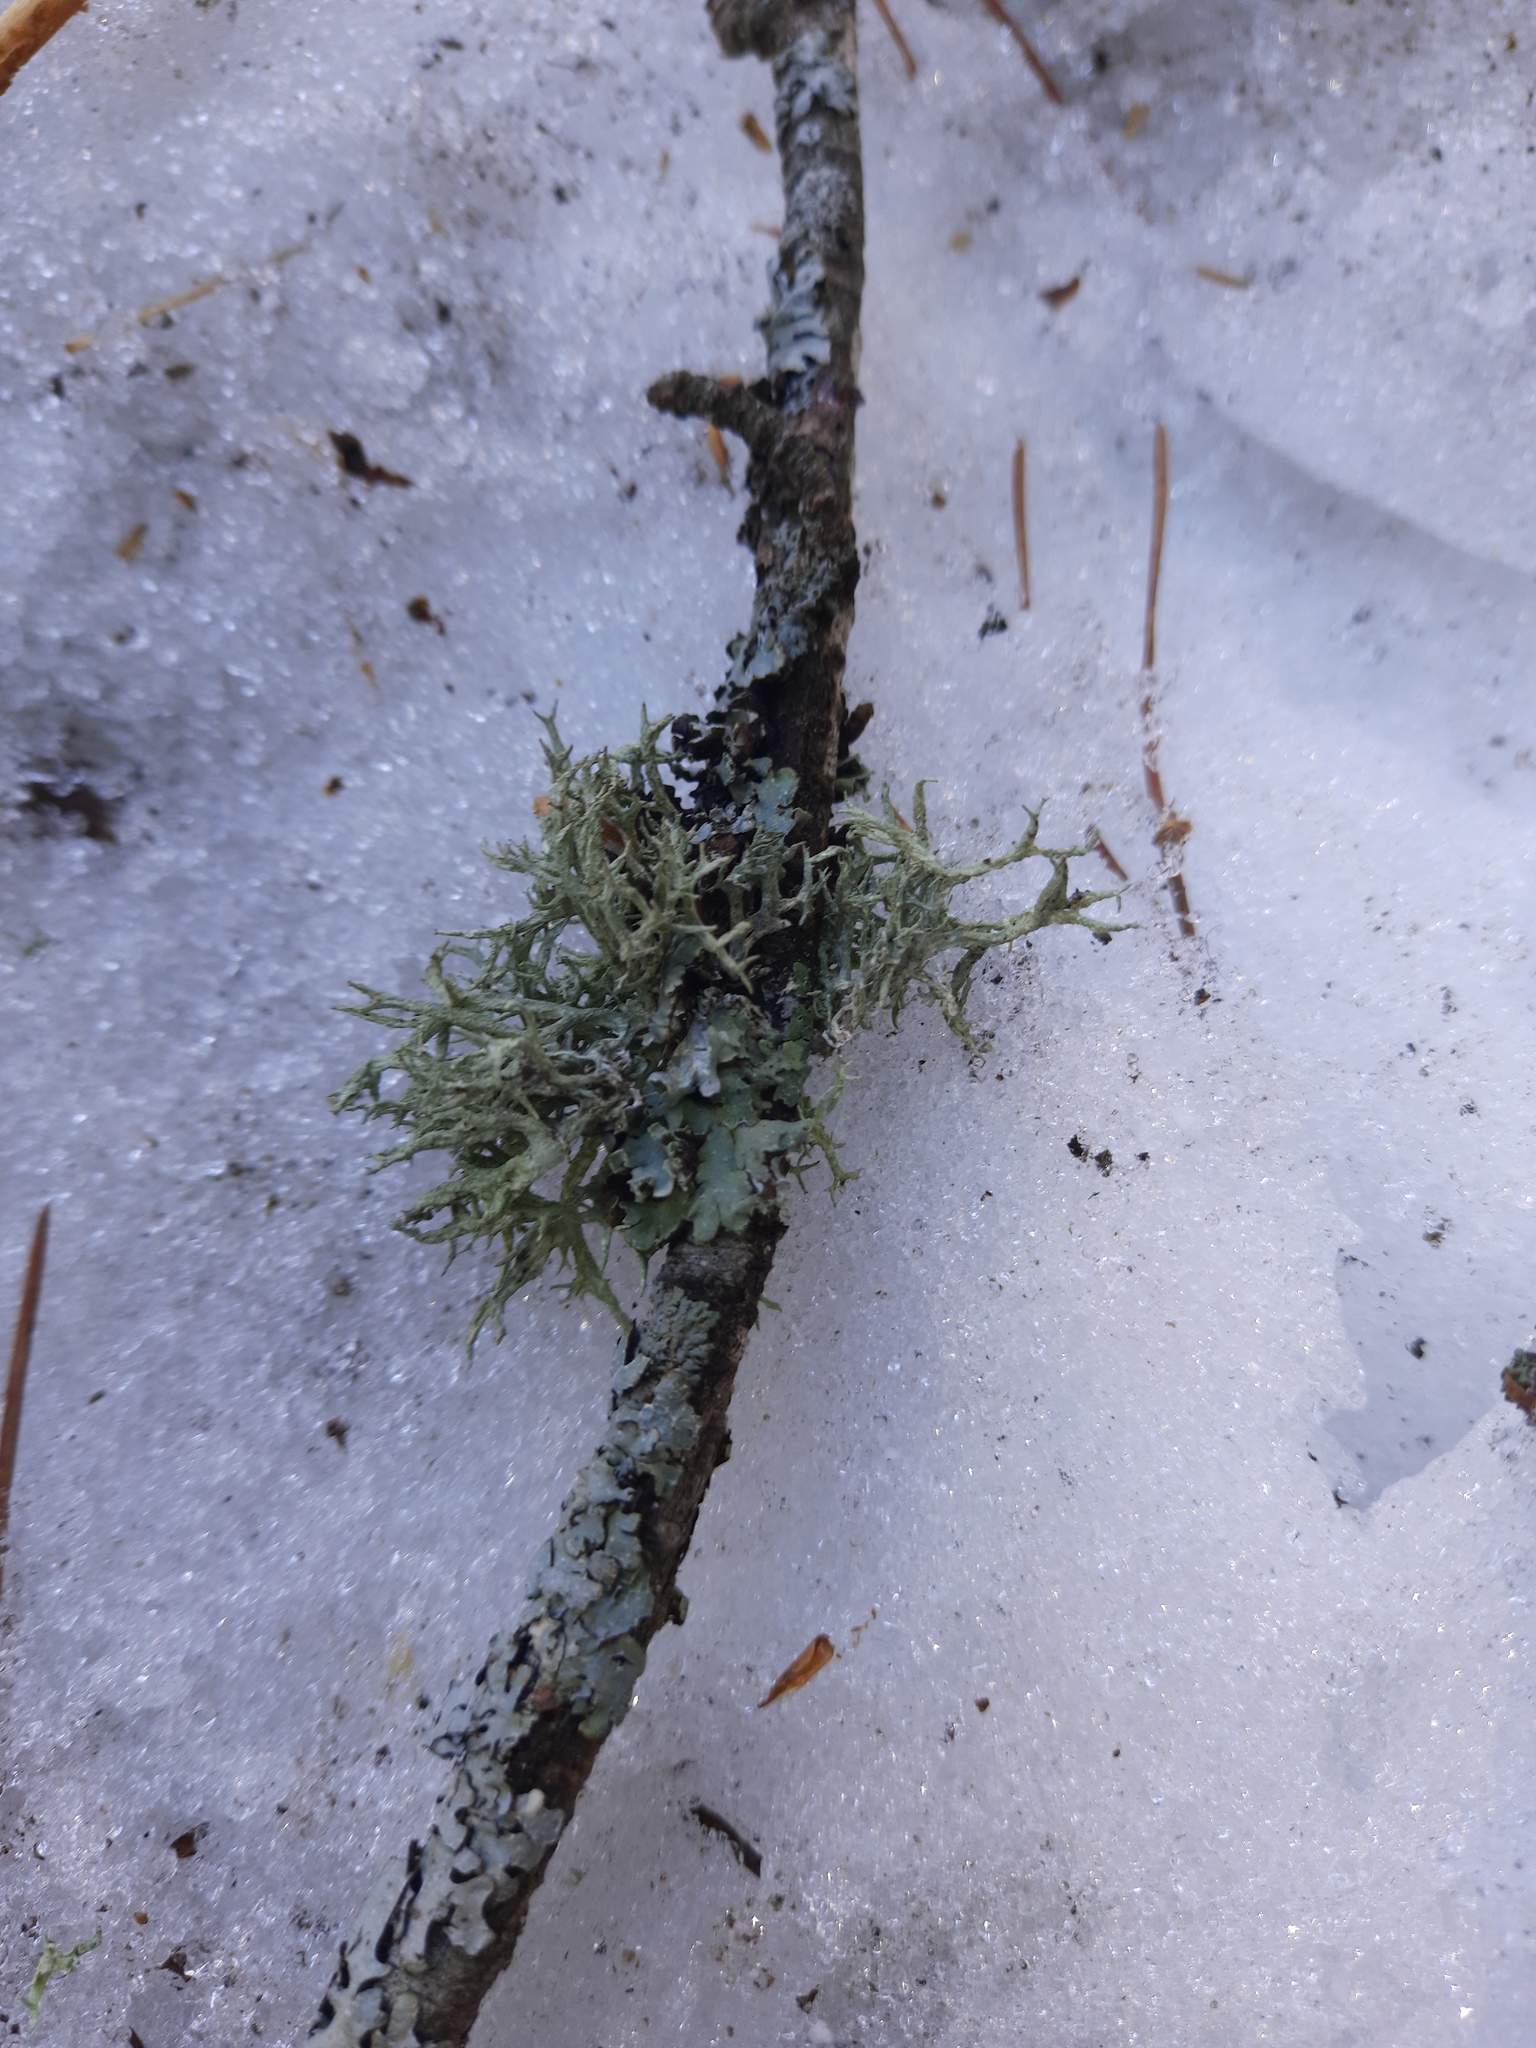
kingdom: Fungi
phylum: Ascomycota
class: Lecanoromycetes
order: Lecanorales
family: Parmeliaceae
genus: Evernia
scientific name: Evernia mesomorpha
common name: Boreal oak moss lichen
